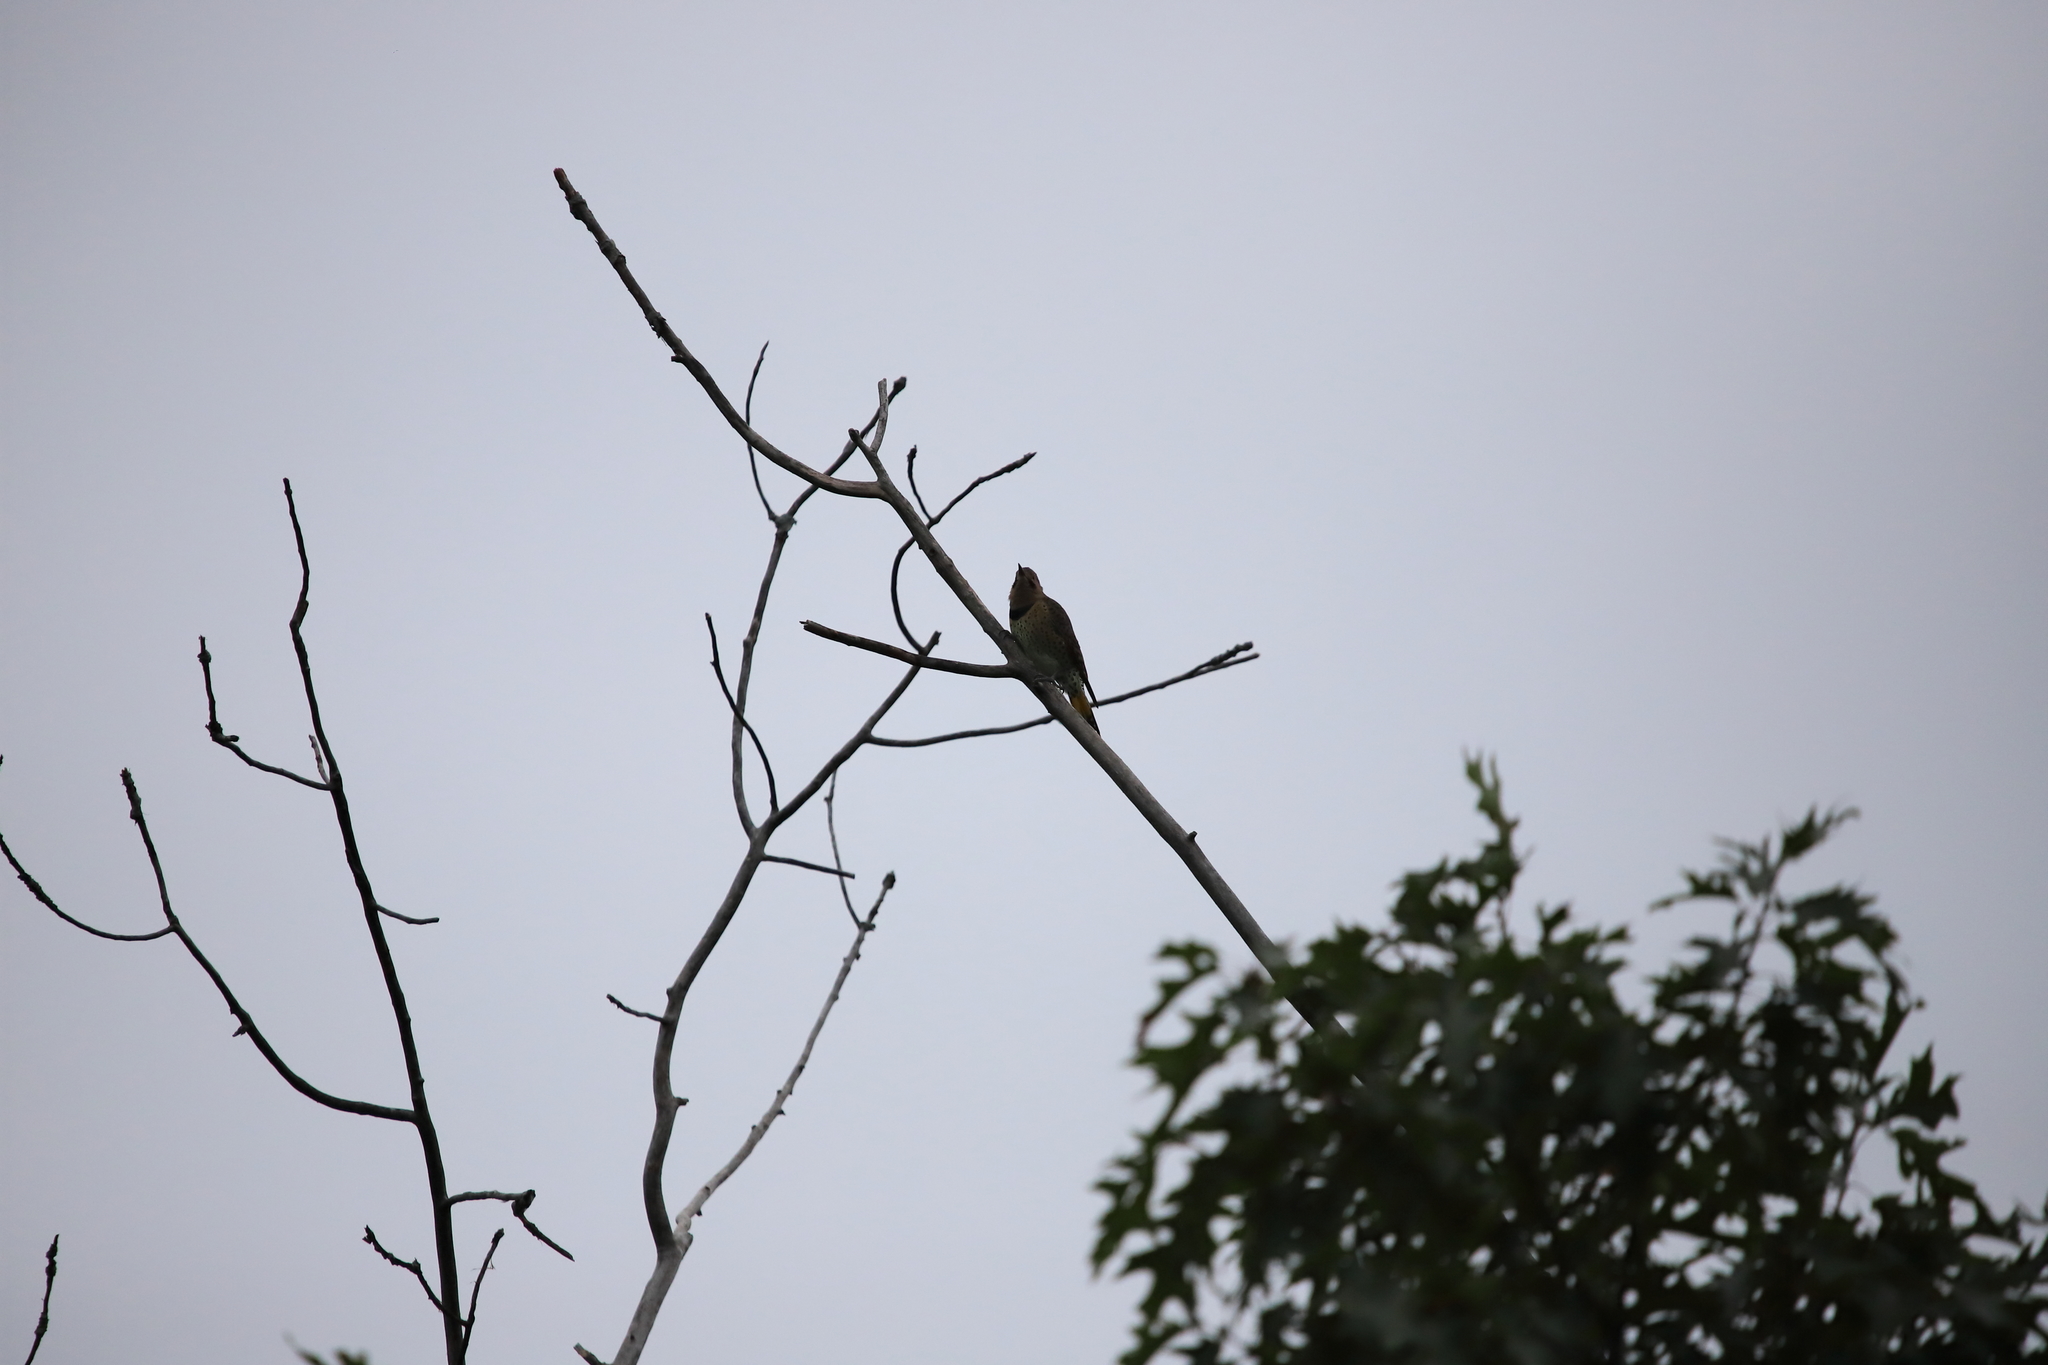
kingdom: Animalia
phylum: Chordata
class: Aves
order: Piciformes
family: Picidae
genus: Colaptes
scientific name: Colaptes auratus
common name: Northern flicker
